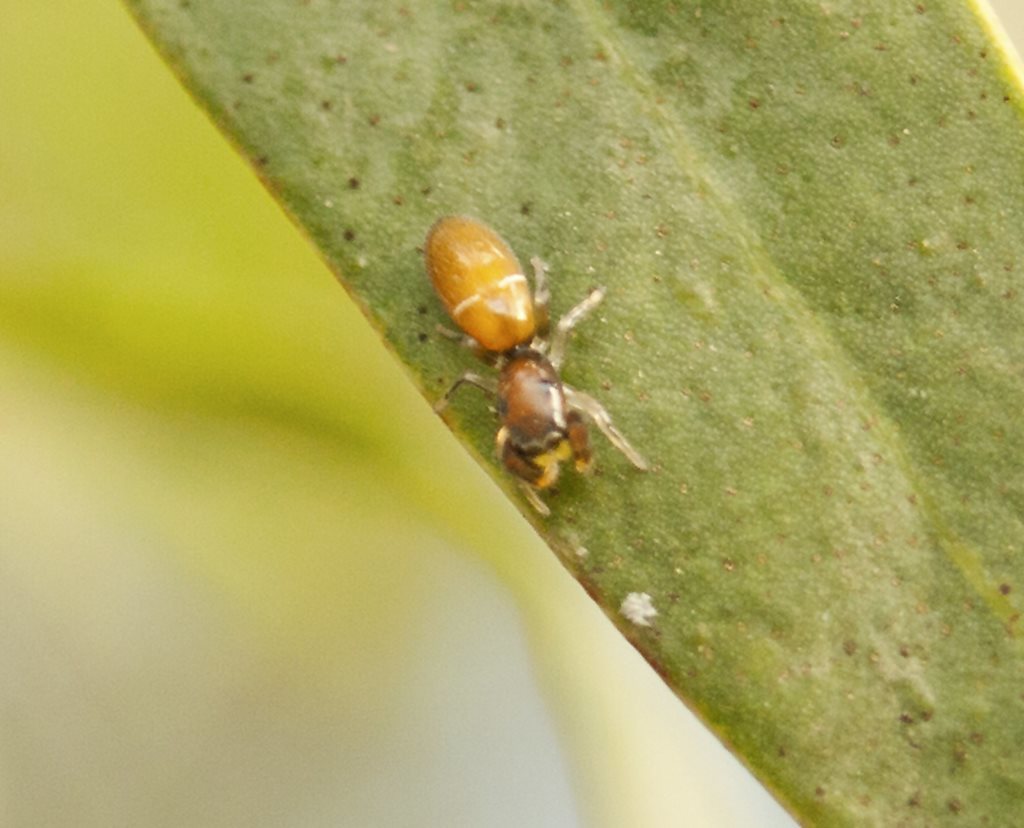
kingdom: Animalia
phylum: Arthropoda
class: Arachnida
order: Araneae
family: Salticidae
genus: Judalana
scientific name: Judalana lutea
